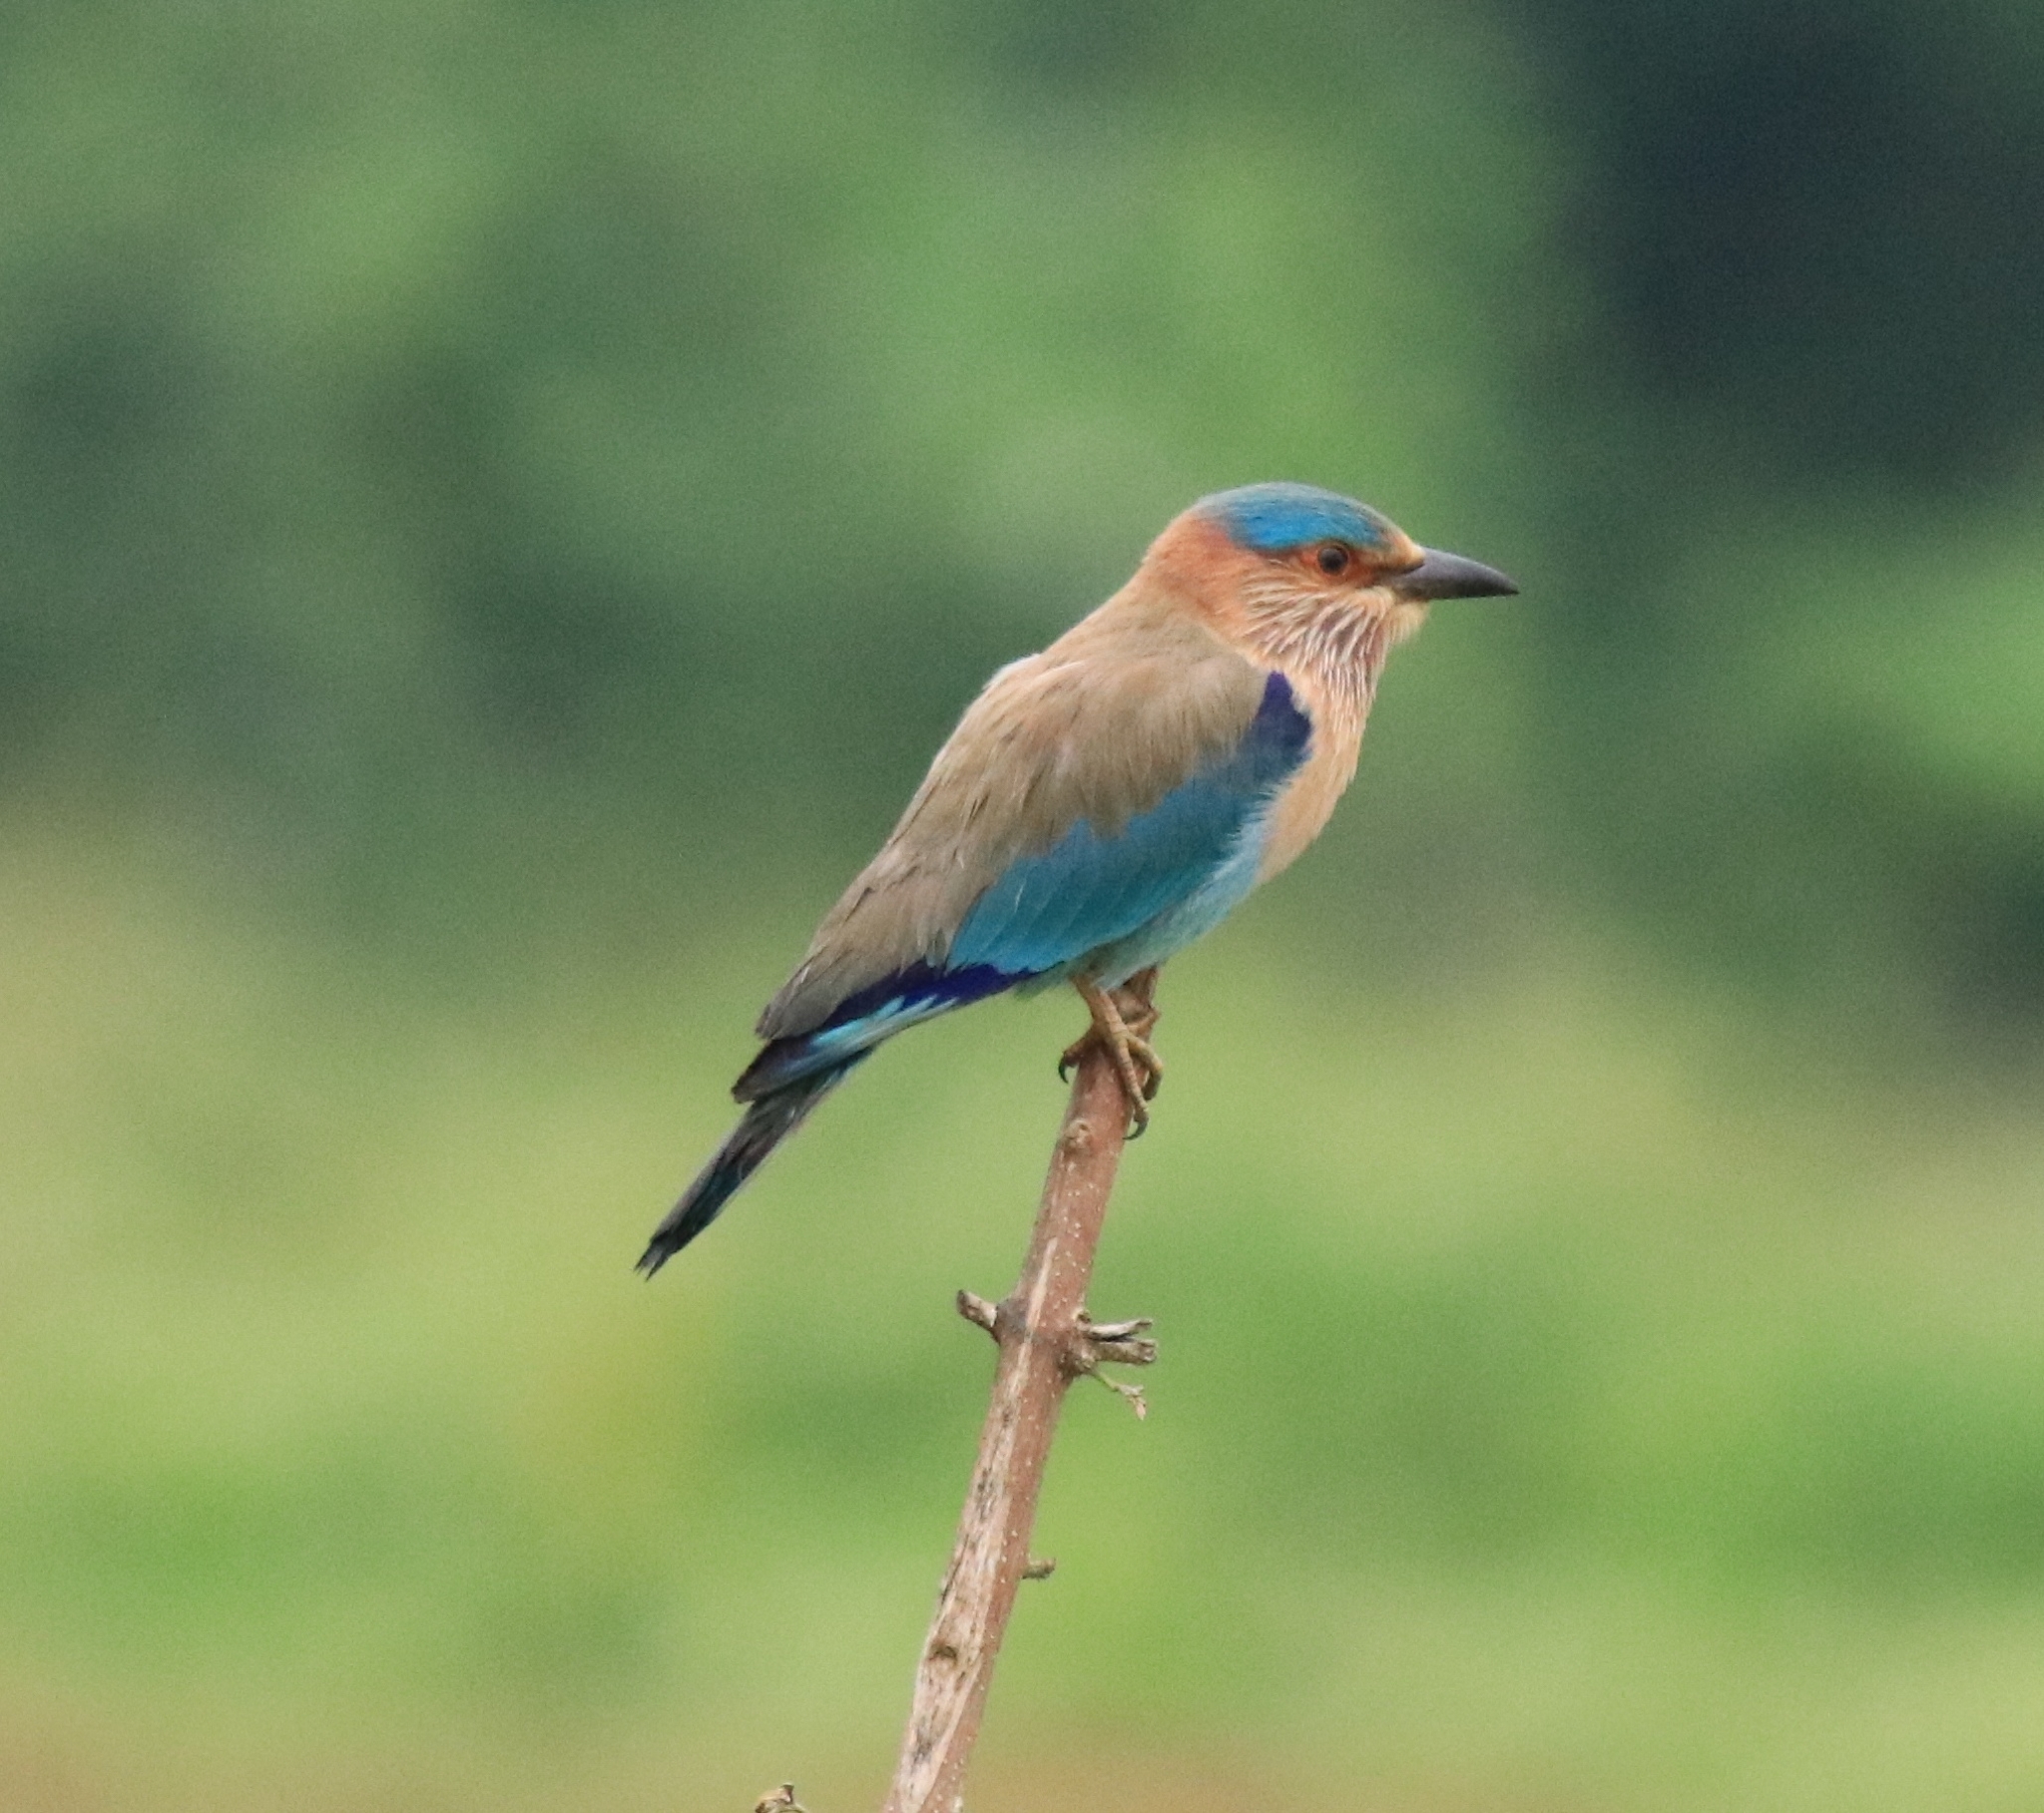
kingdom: Animalia
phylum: Chordata
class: Aves
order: Coraciiformes
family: Coraciidae
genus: Coracias
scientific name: Coracias benghalensis
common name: Indian roller
